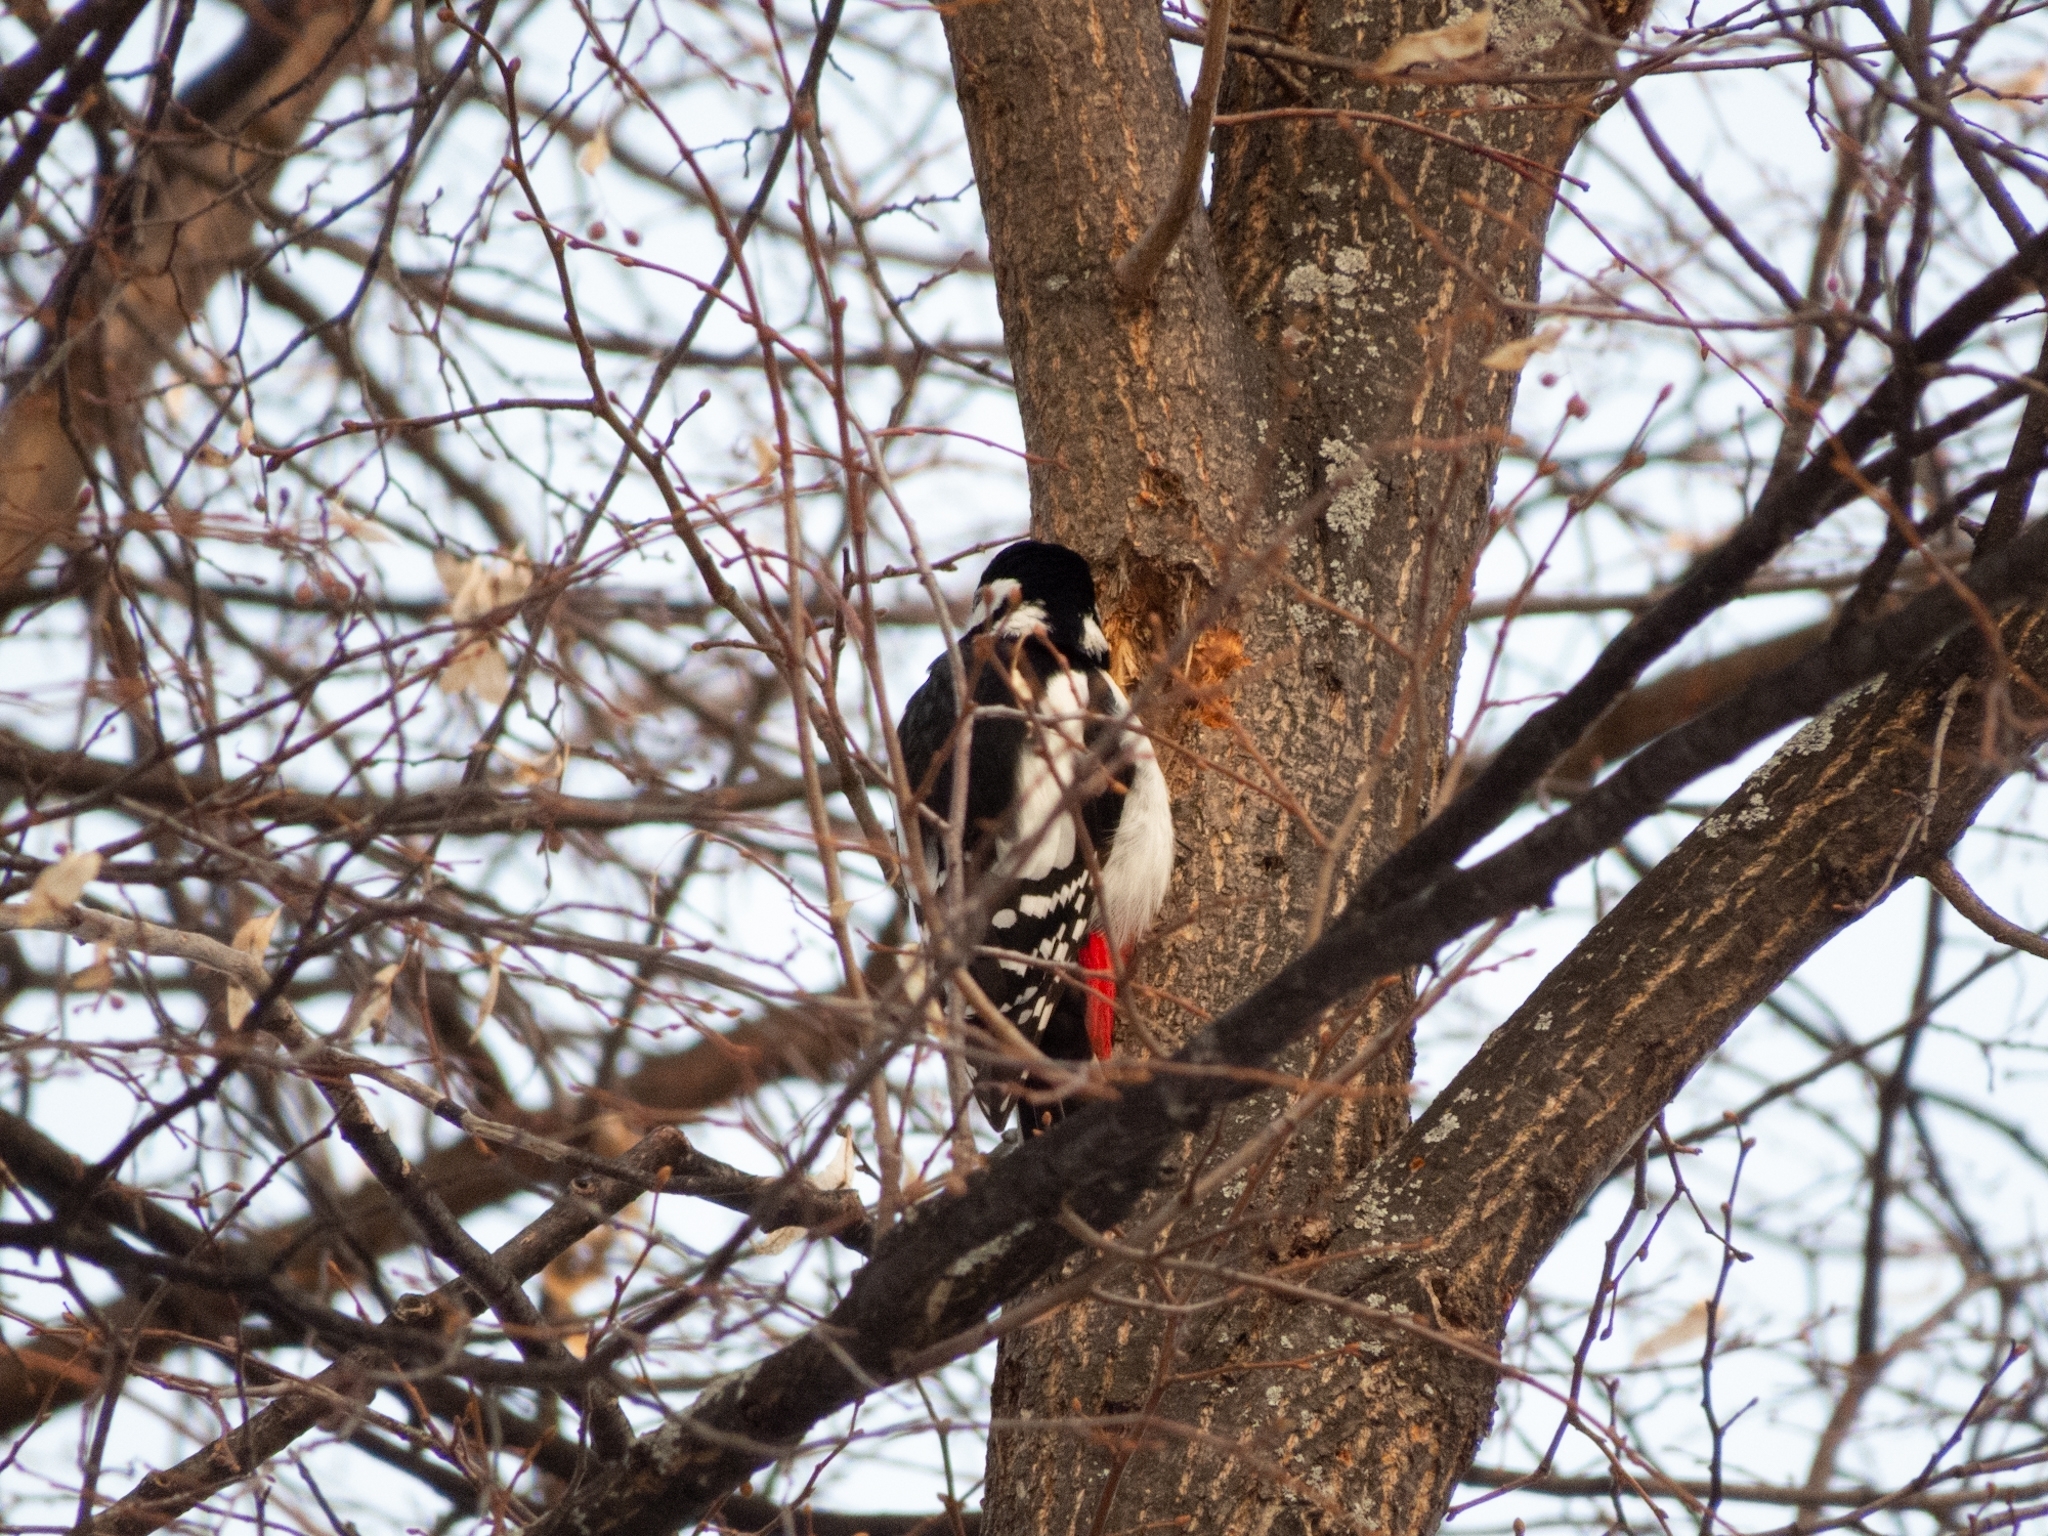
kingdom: Animalia
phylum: Chordata
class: Aves
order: Piciformes
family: Picidae
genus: Dendrocopos
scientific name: Dendrocopos major
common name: Great spotted woodpecker
